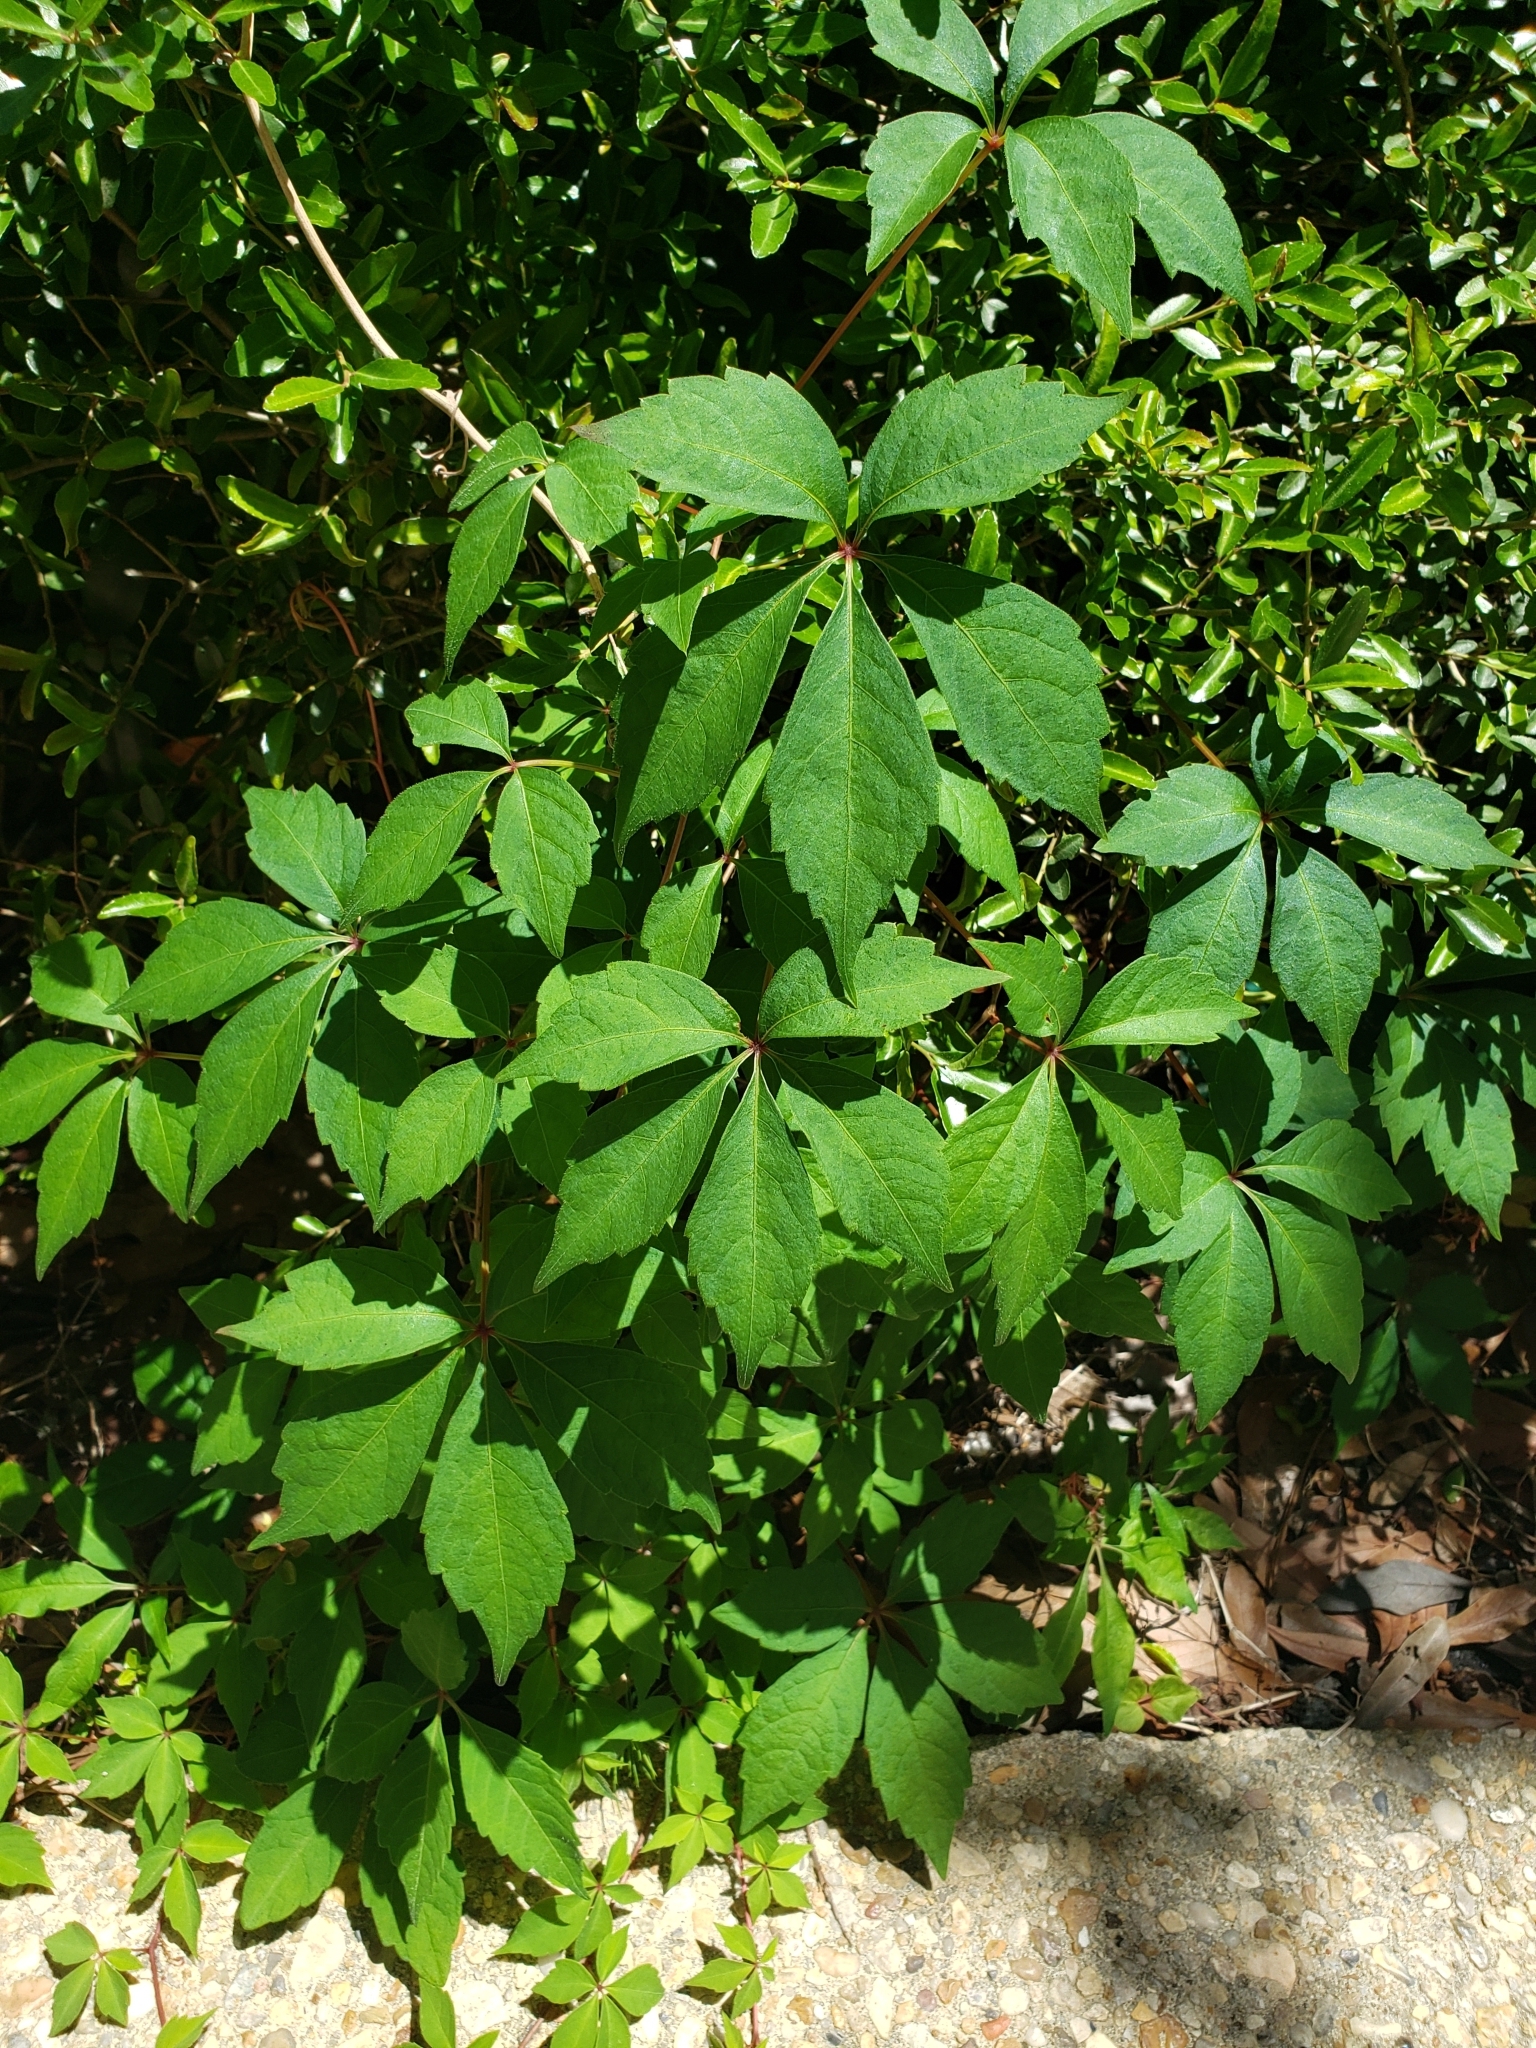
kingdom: Plantae
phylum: Tracheophyta
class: Magnoliopsida
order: Vitales
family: Vitaceae
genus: Parthenocissus
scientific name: Parthenocissus quinquefolia
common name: Virginia-creeper
